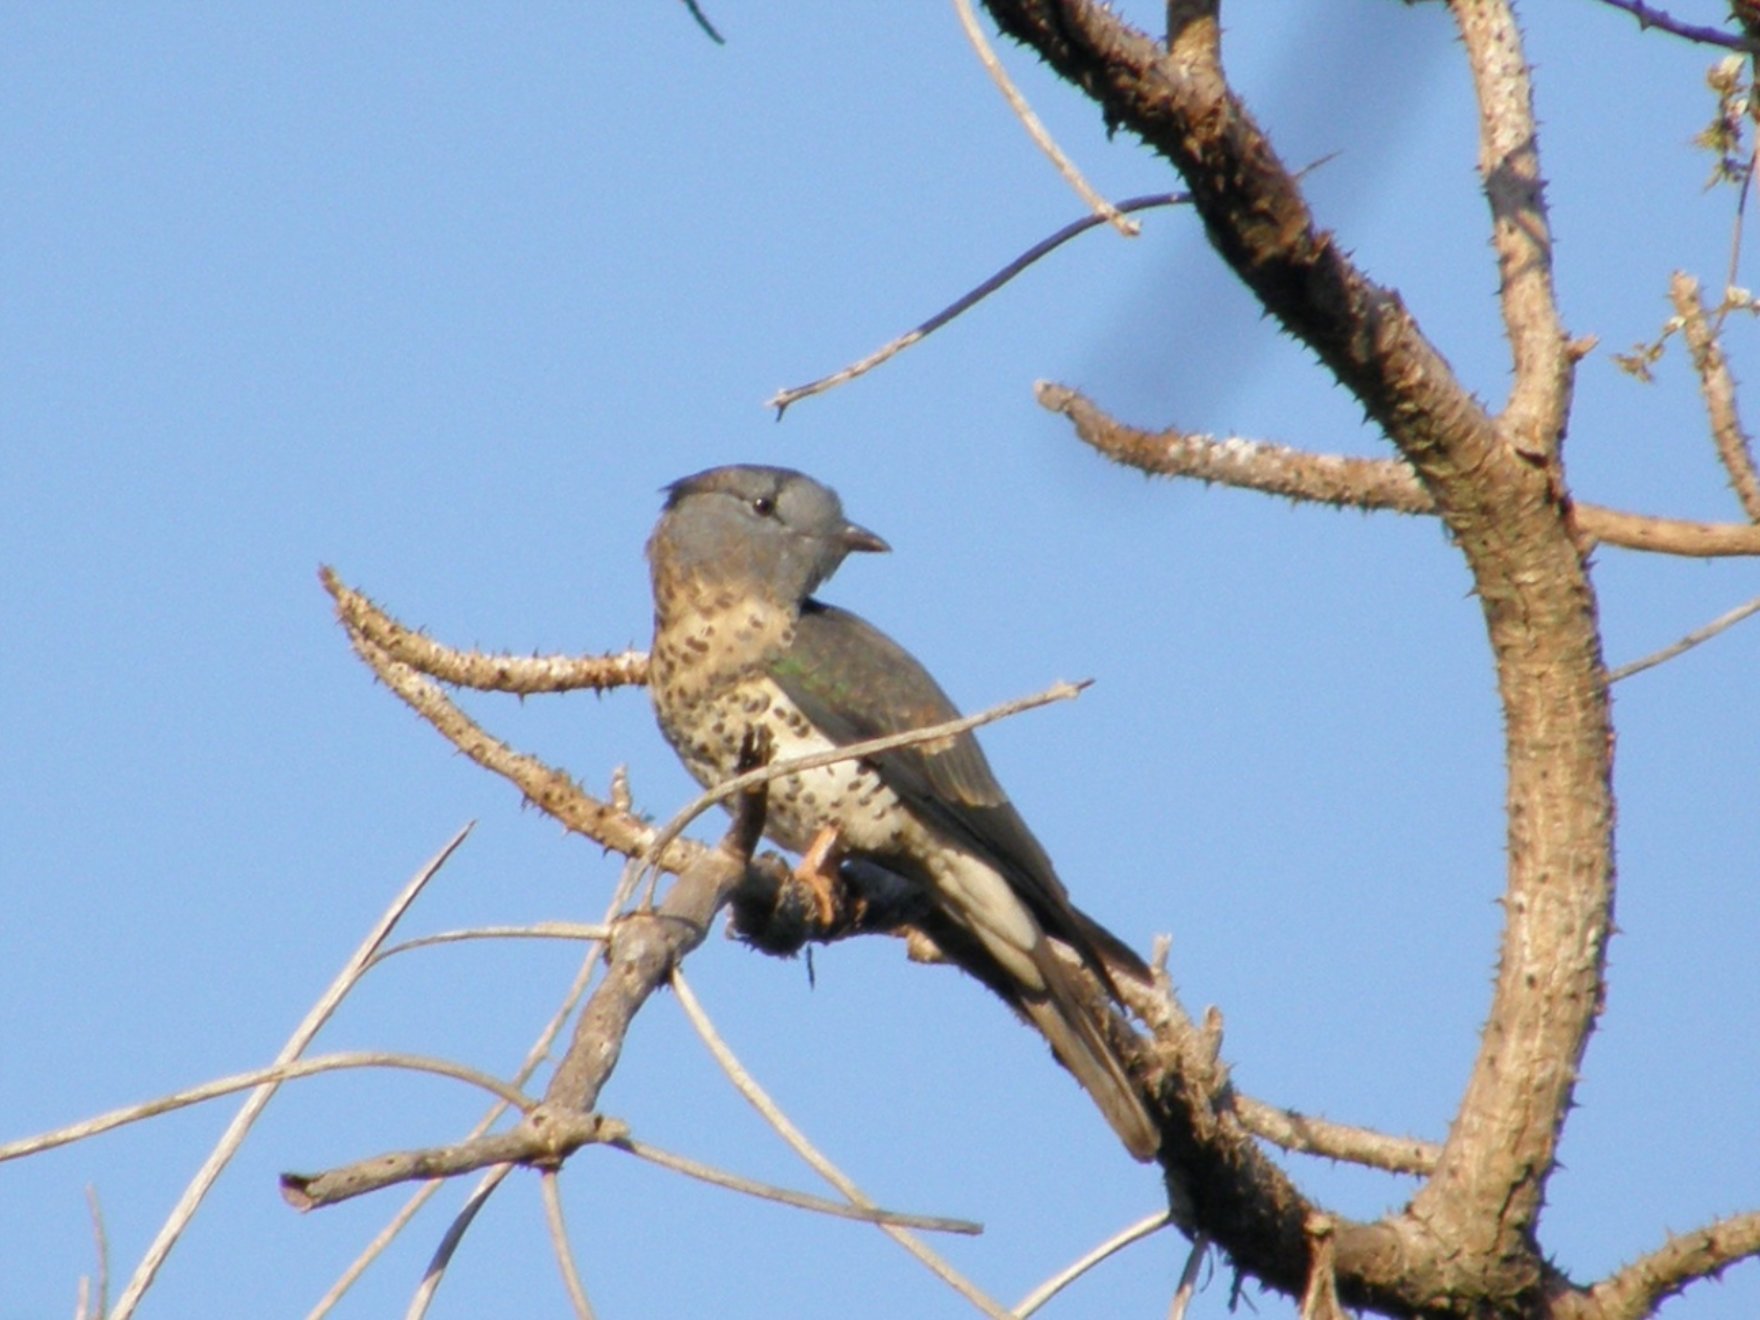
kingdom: Animalia
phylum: Chordata
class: Aves
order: Leptosomiformes
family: Leptosomidae
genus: Leptosomus
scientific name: Leptosomus discolor
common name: Cuckoo roller
